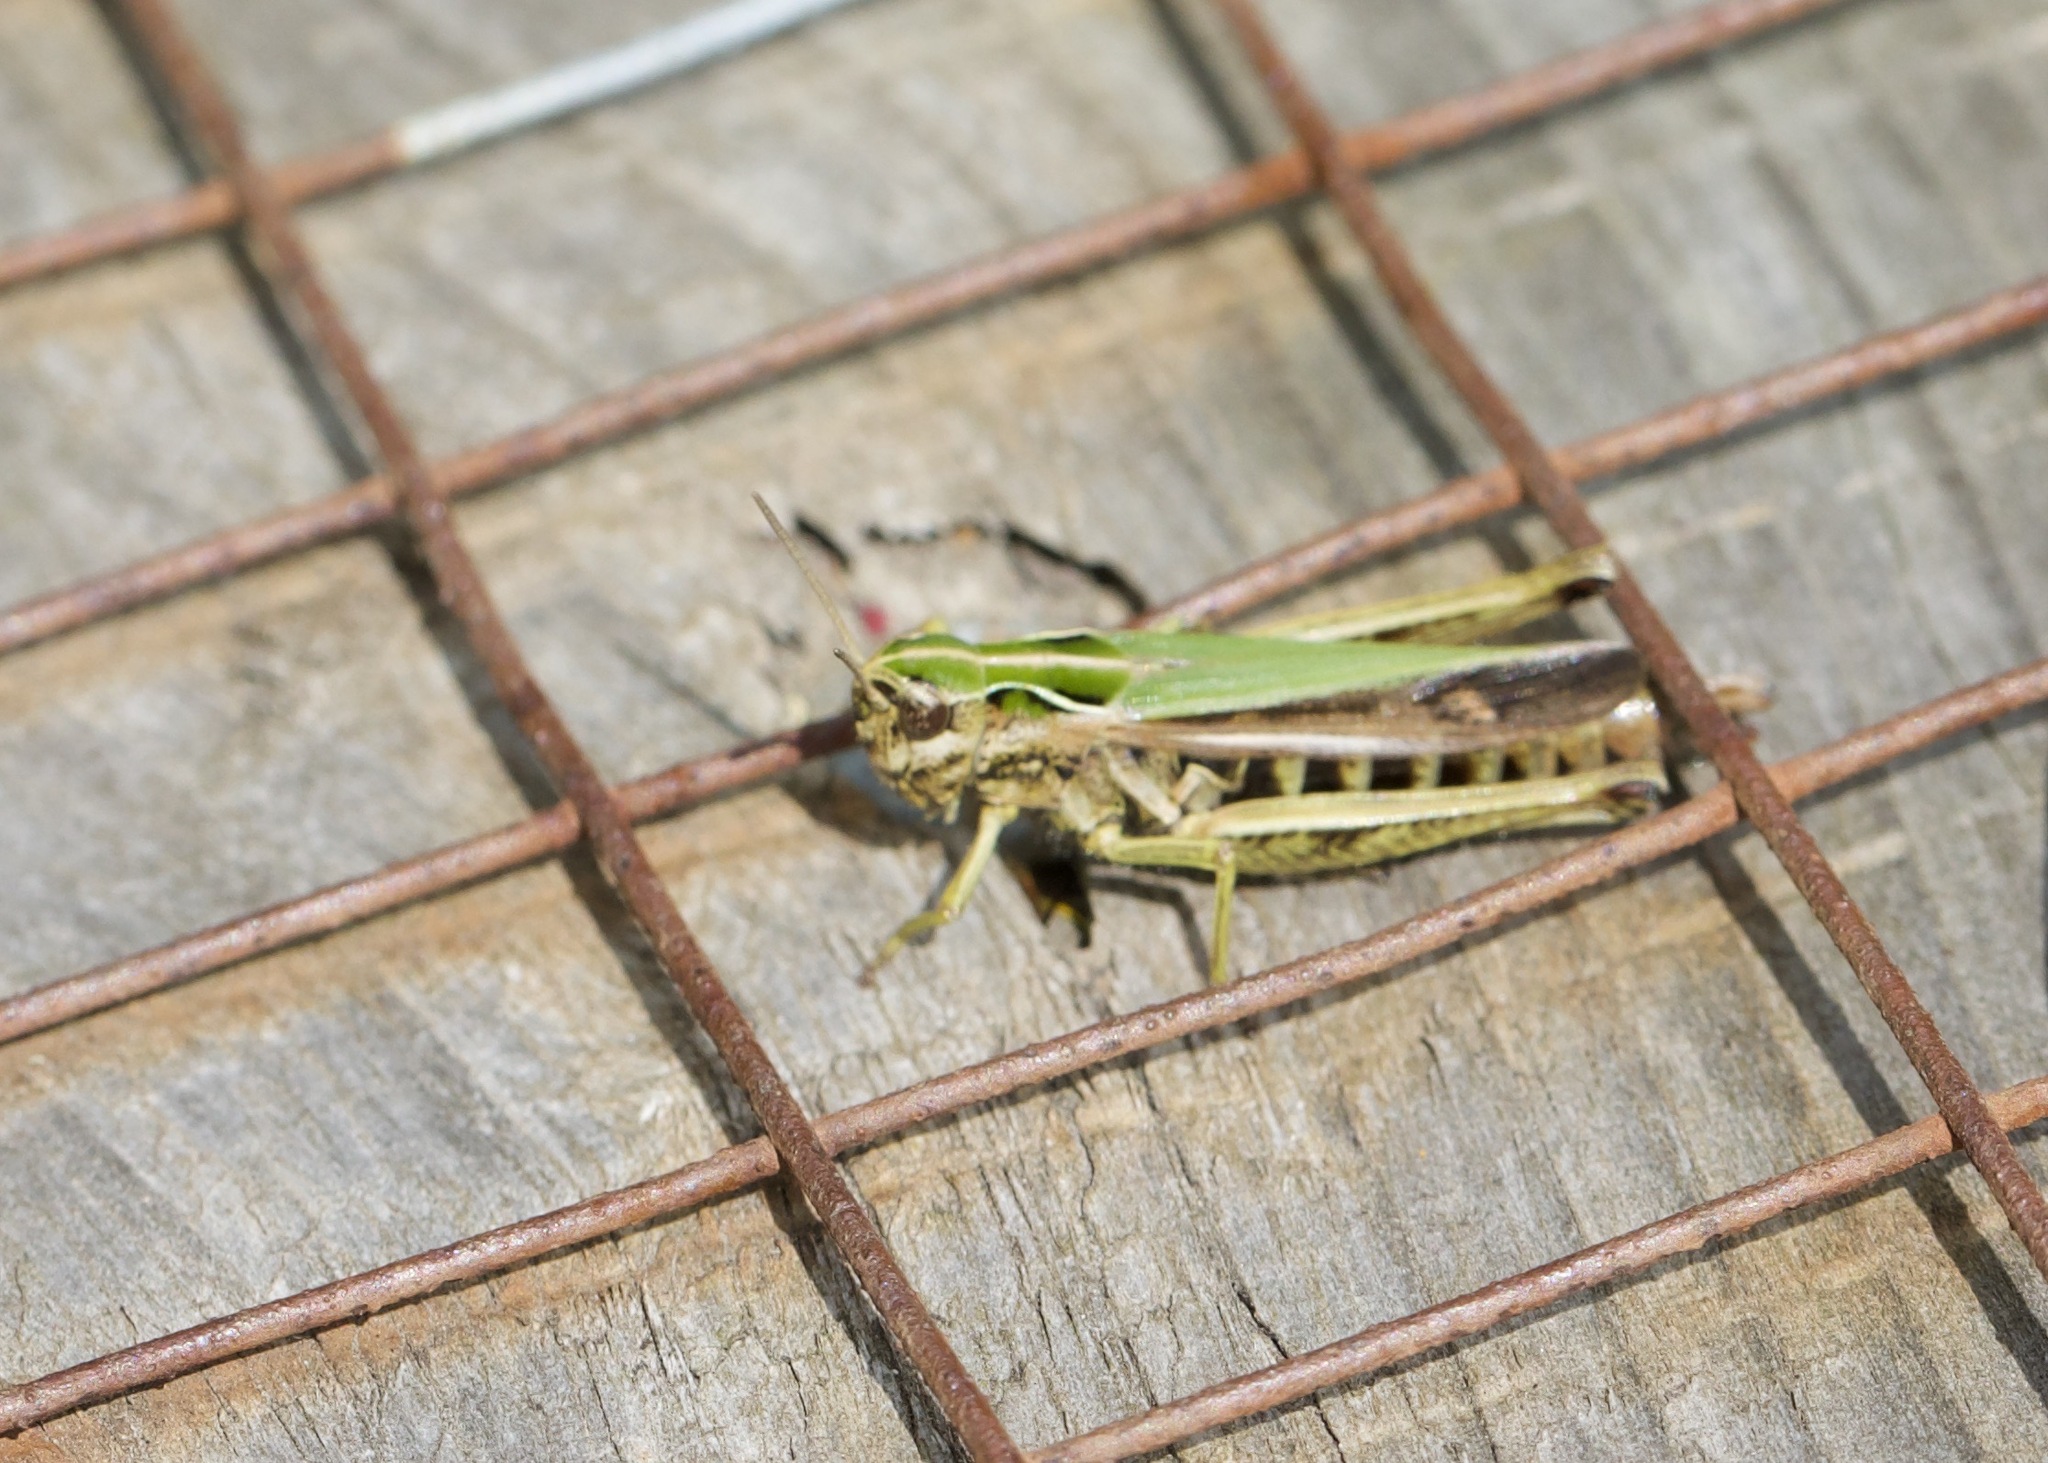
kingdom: Animalia
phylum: Arthropoda
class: Insecta
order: Orthoptera
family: Acrididae
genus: Omocestus
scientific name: Omocestus viridulus
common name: Common green grasshopper
